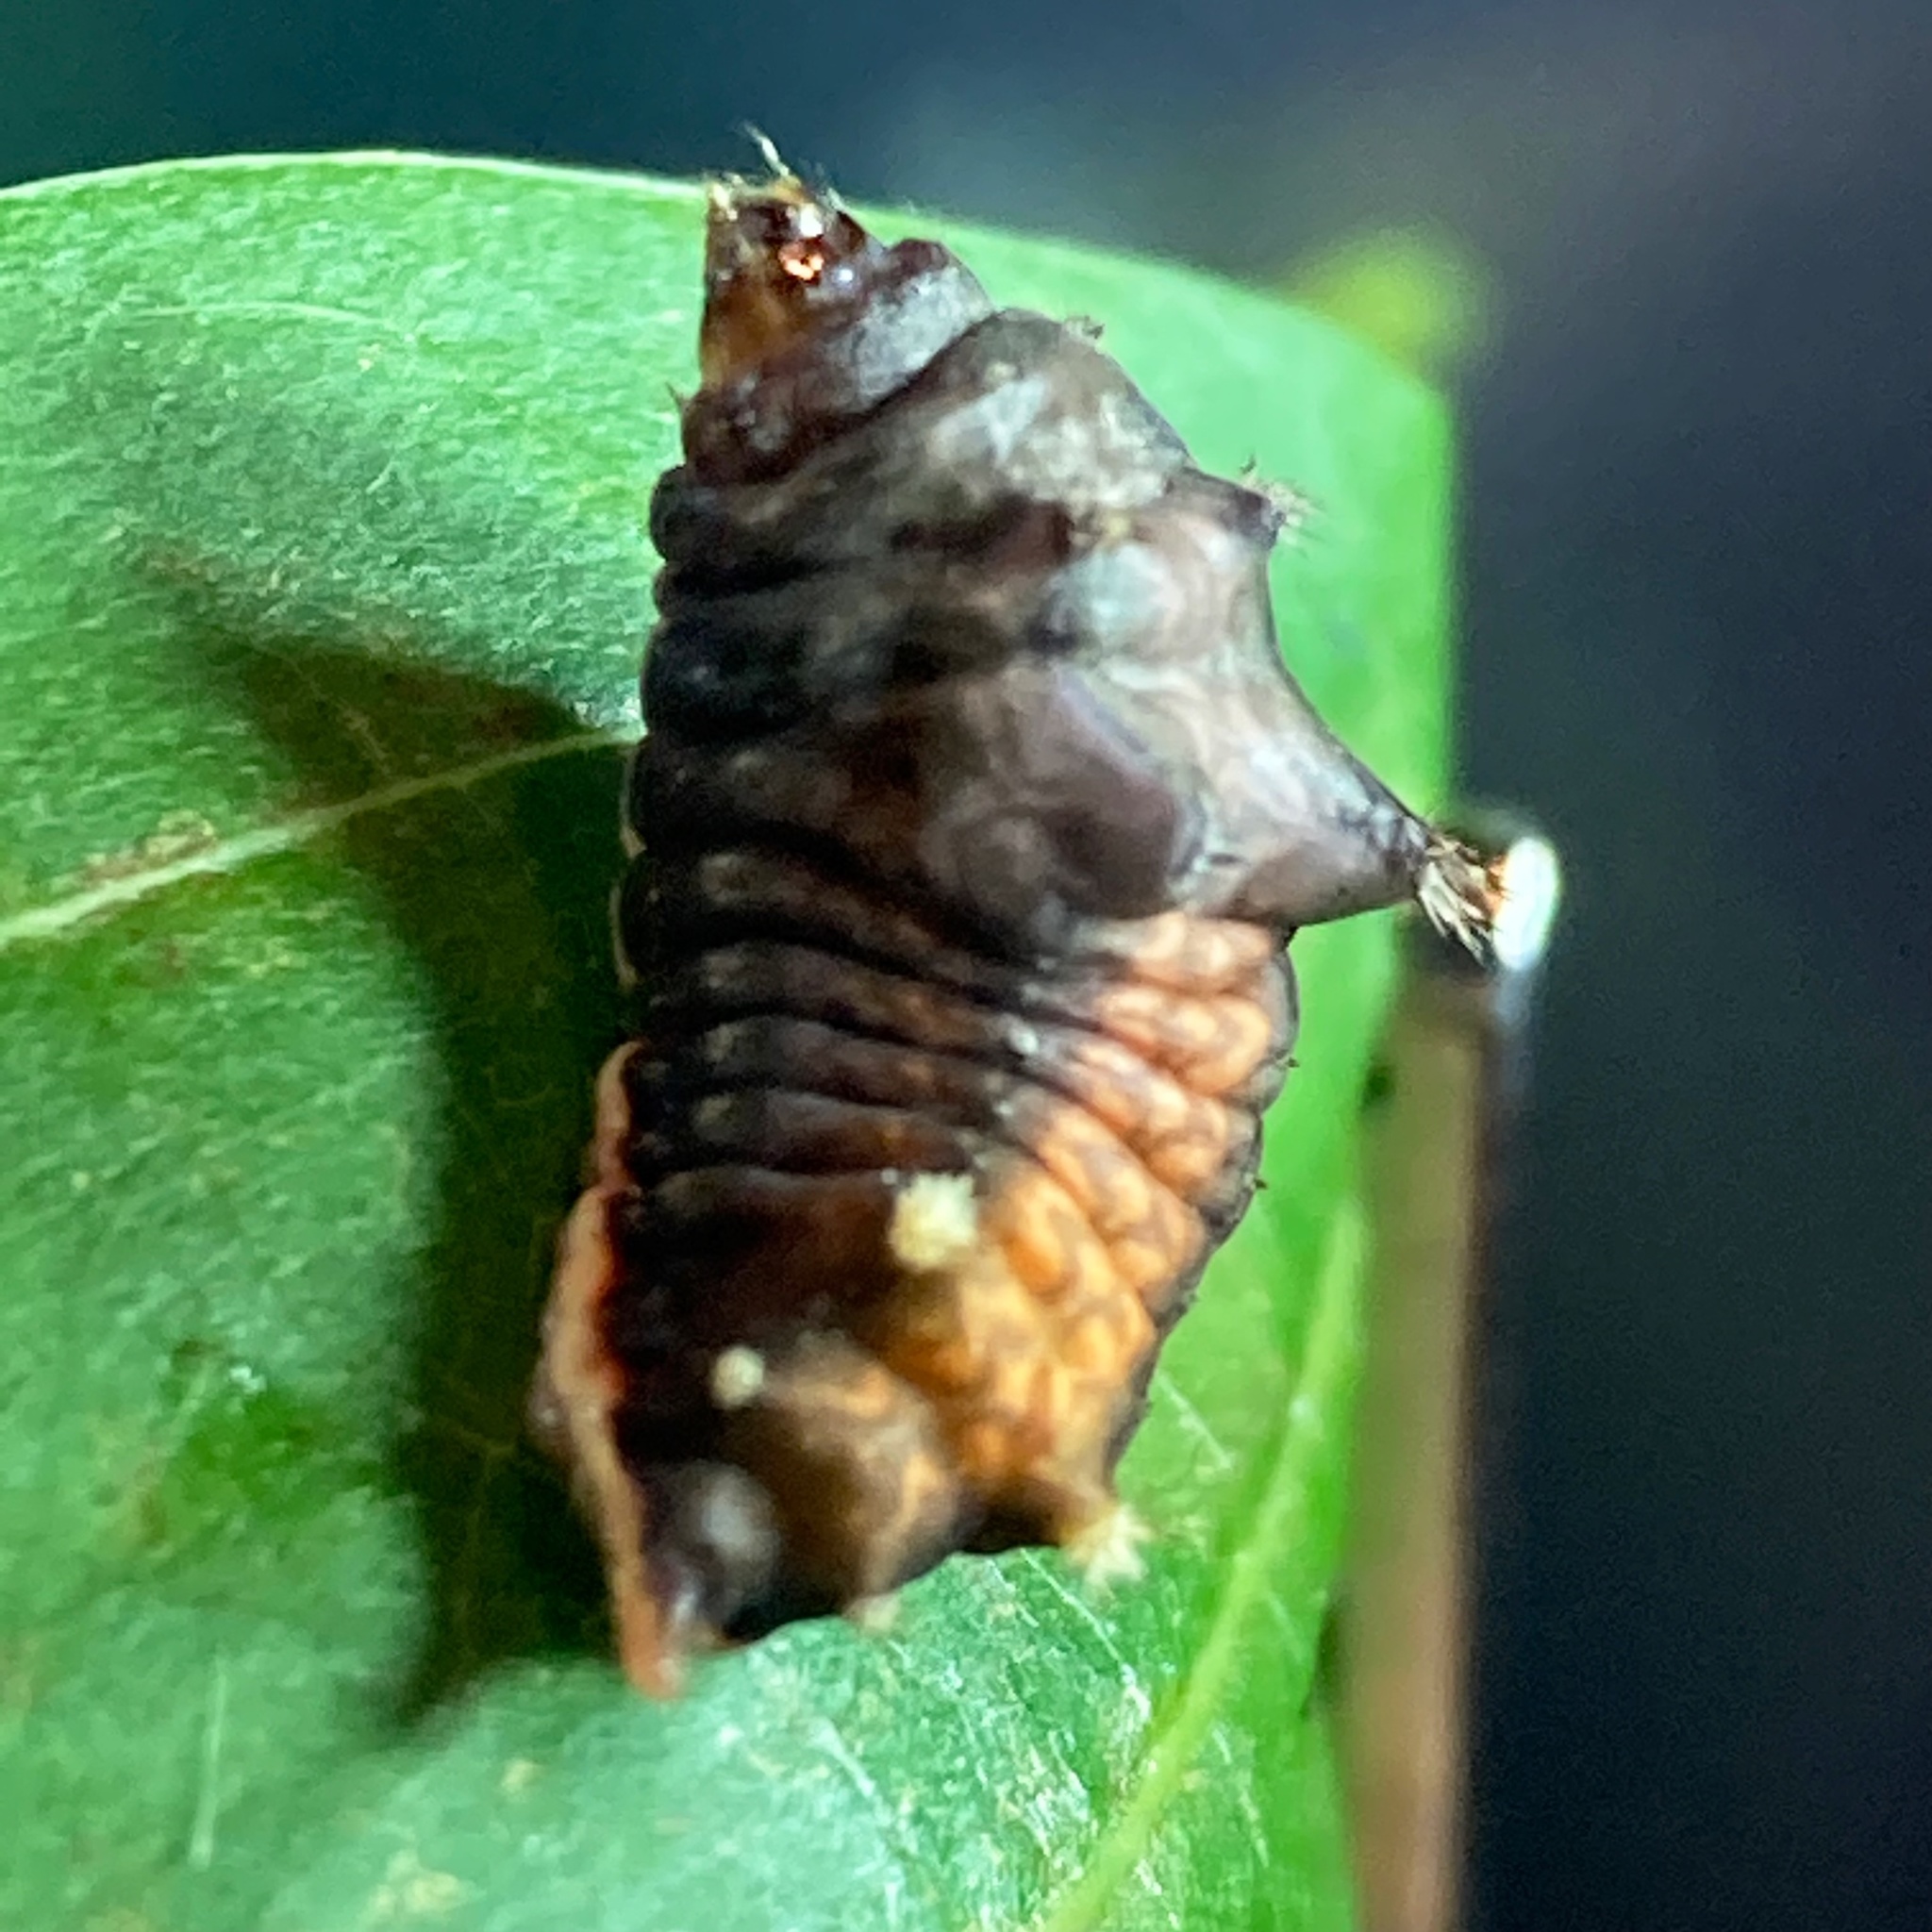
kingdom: Animalia
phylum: Arthropoda
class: Insecta
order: Lepidoptera
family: Limacodidae
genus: Parasa
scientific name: Parasa chloris
